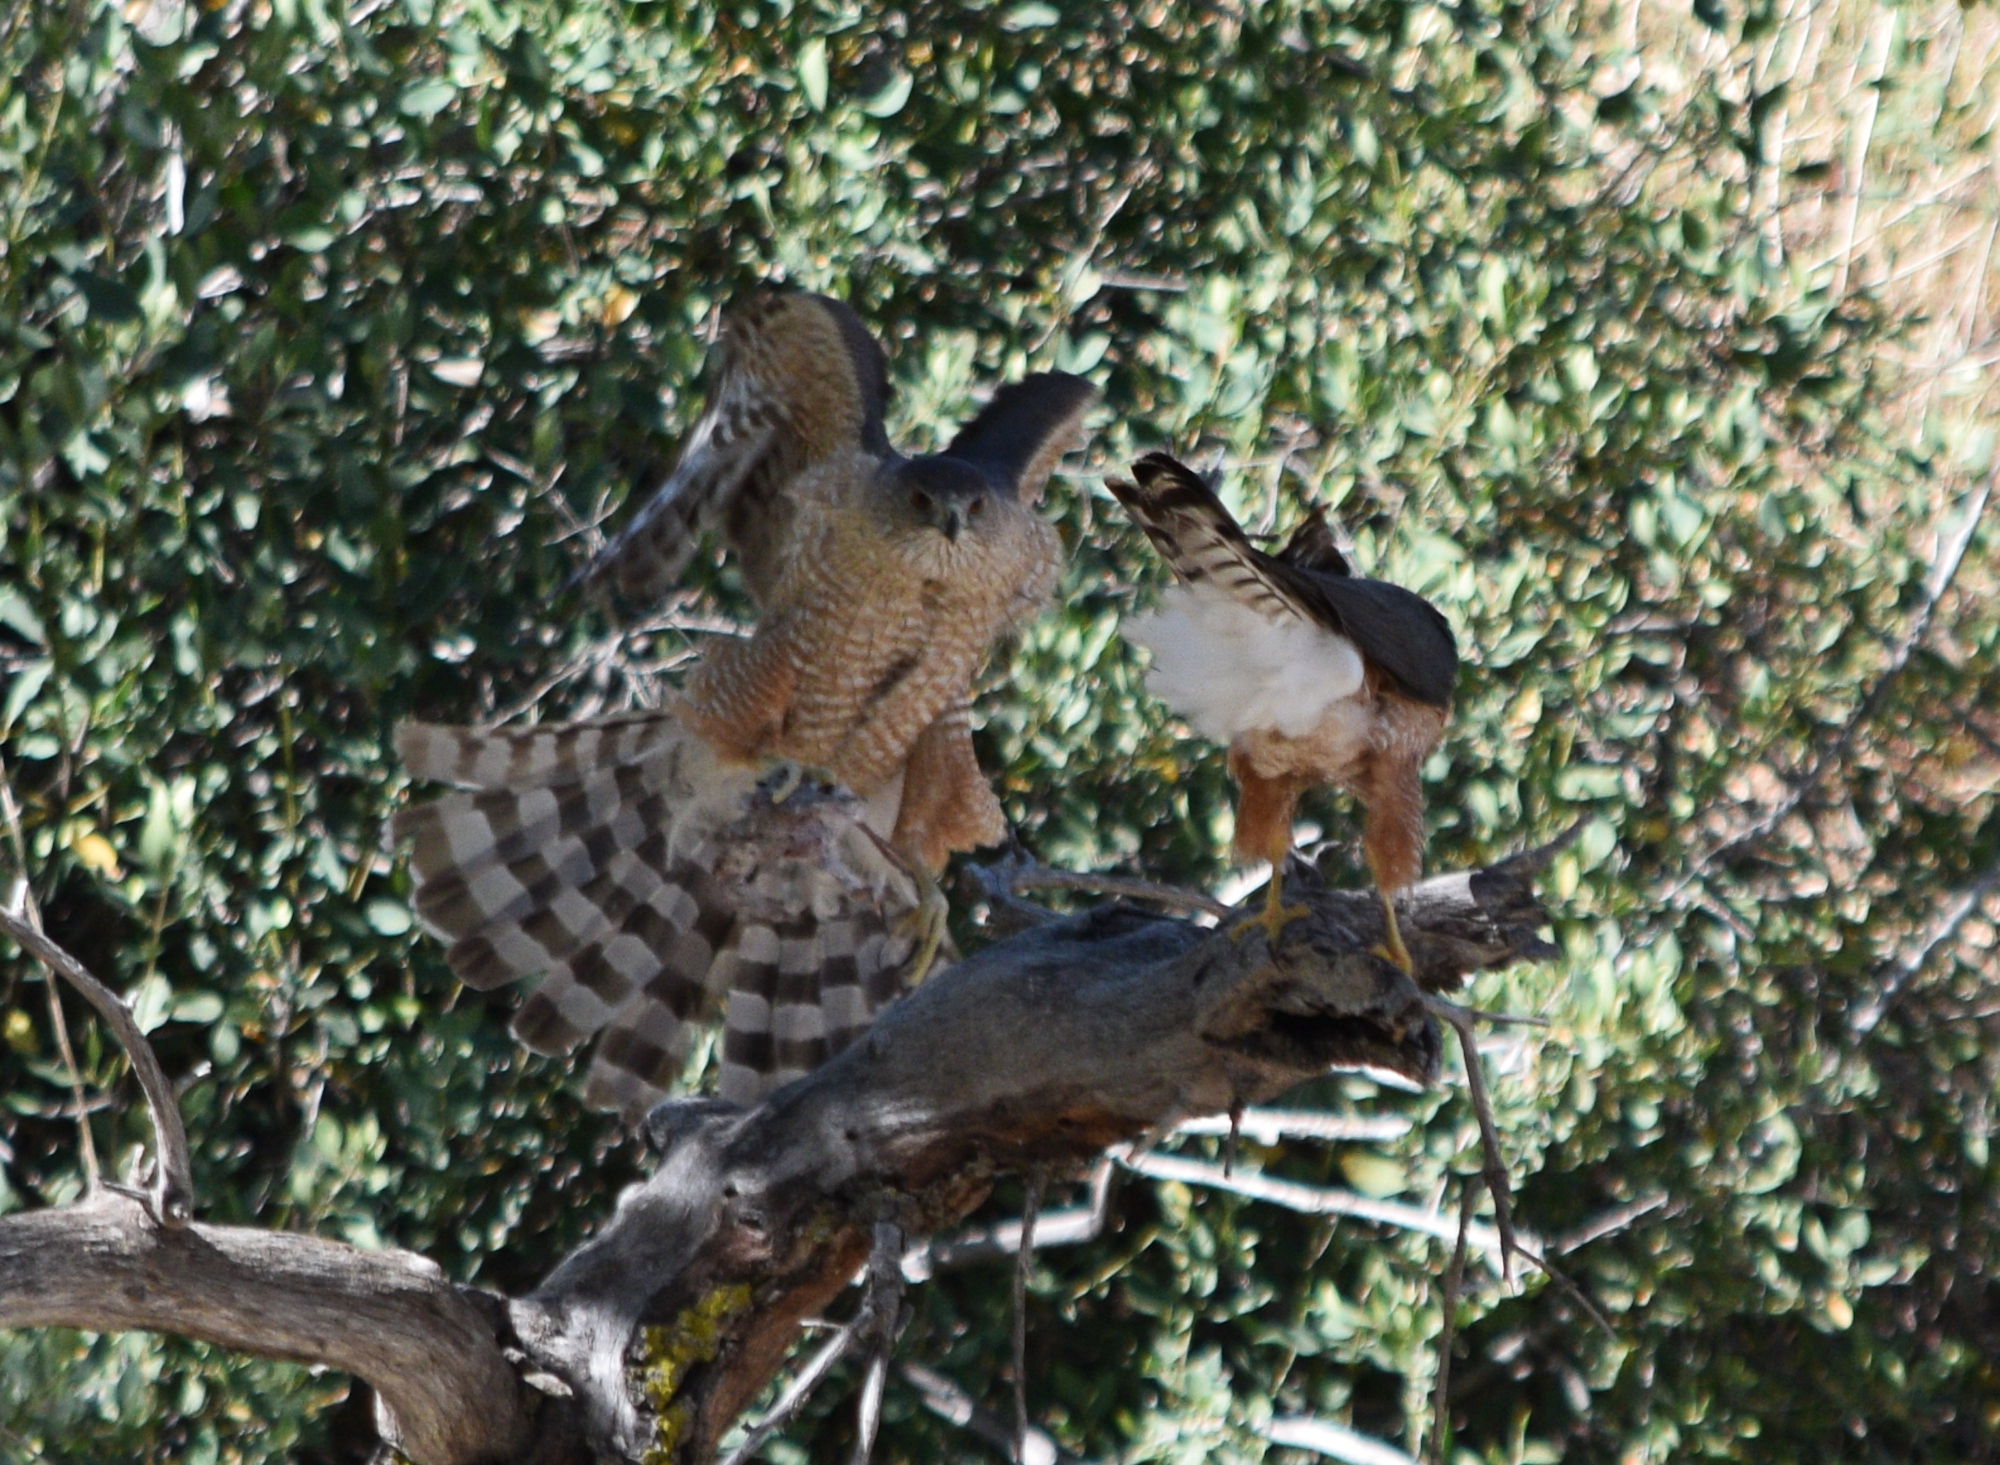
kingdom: Animalia
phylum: Chordata
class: Aves
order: Accipitriformes
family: Accipitridae
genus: Accipiter
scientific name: Accipiter cooperii
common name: Cooper's hawk
